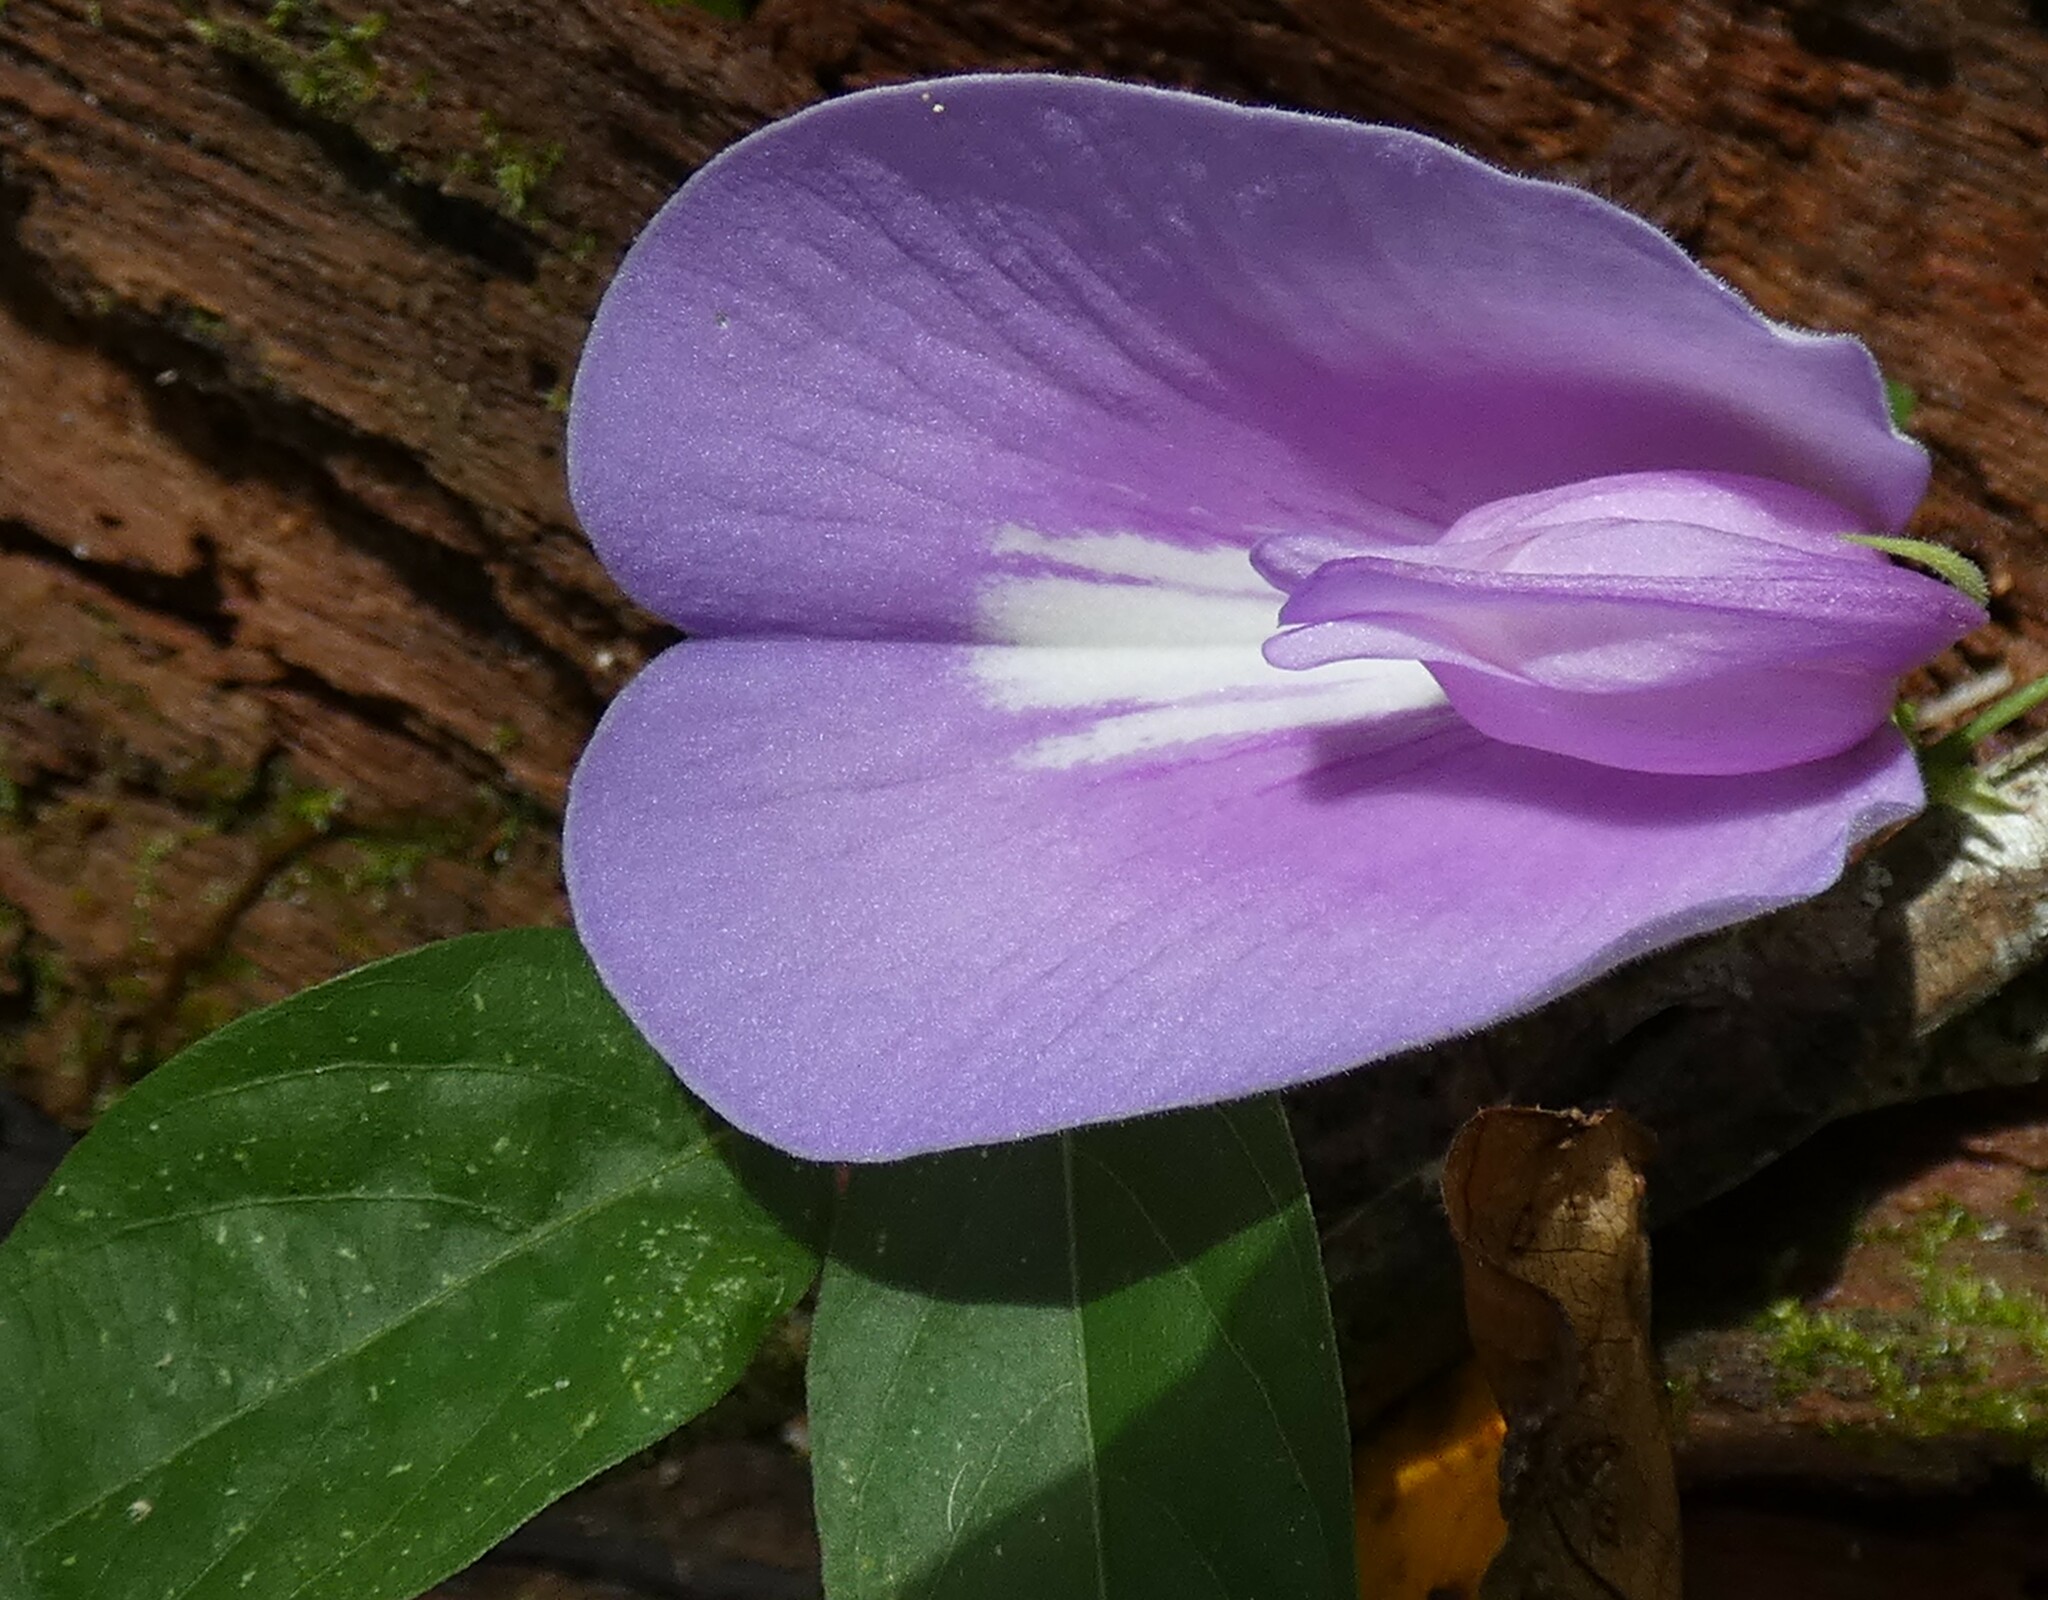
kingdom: Plantae
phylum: Tracheophyta
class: Magnoliopsida
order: Fabales
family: Fabaceae
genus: Centrosema
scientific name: Centrosema virginianum
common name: Butterfly-pea
